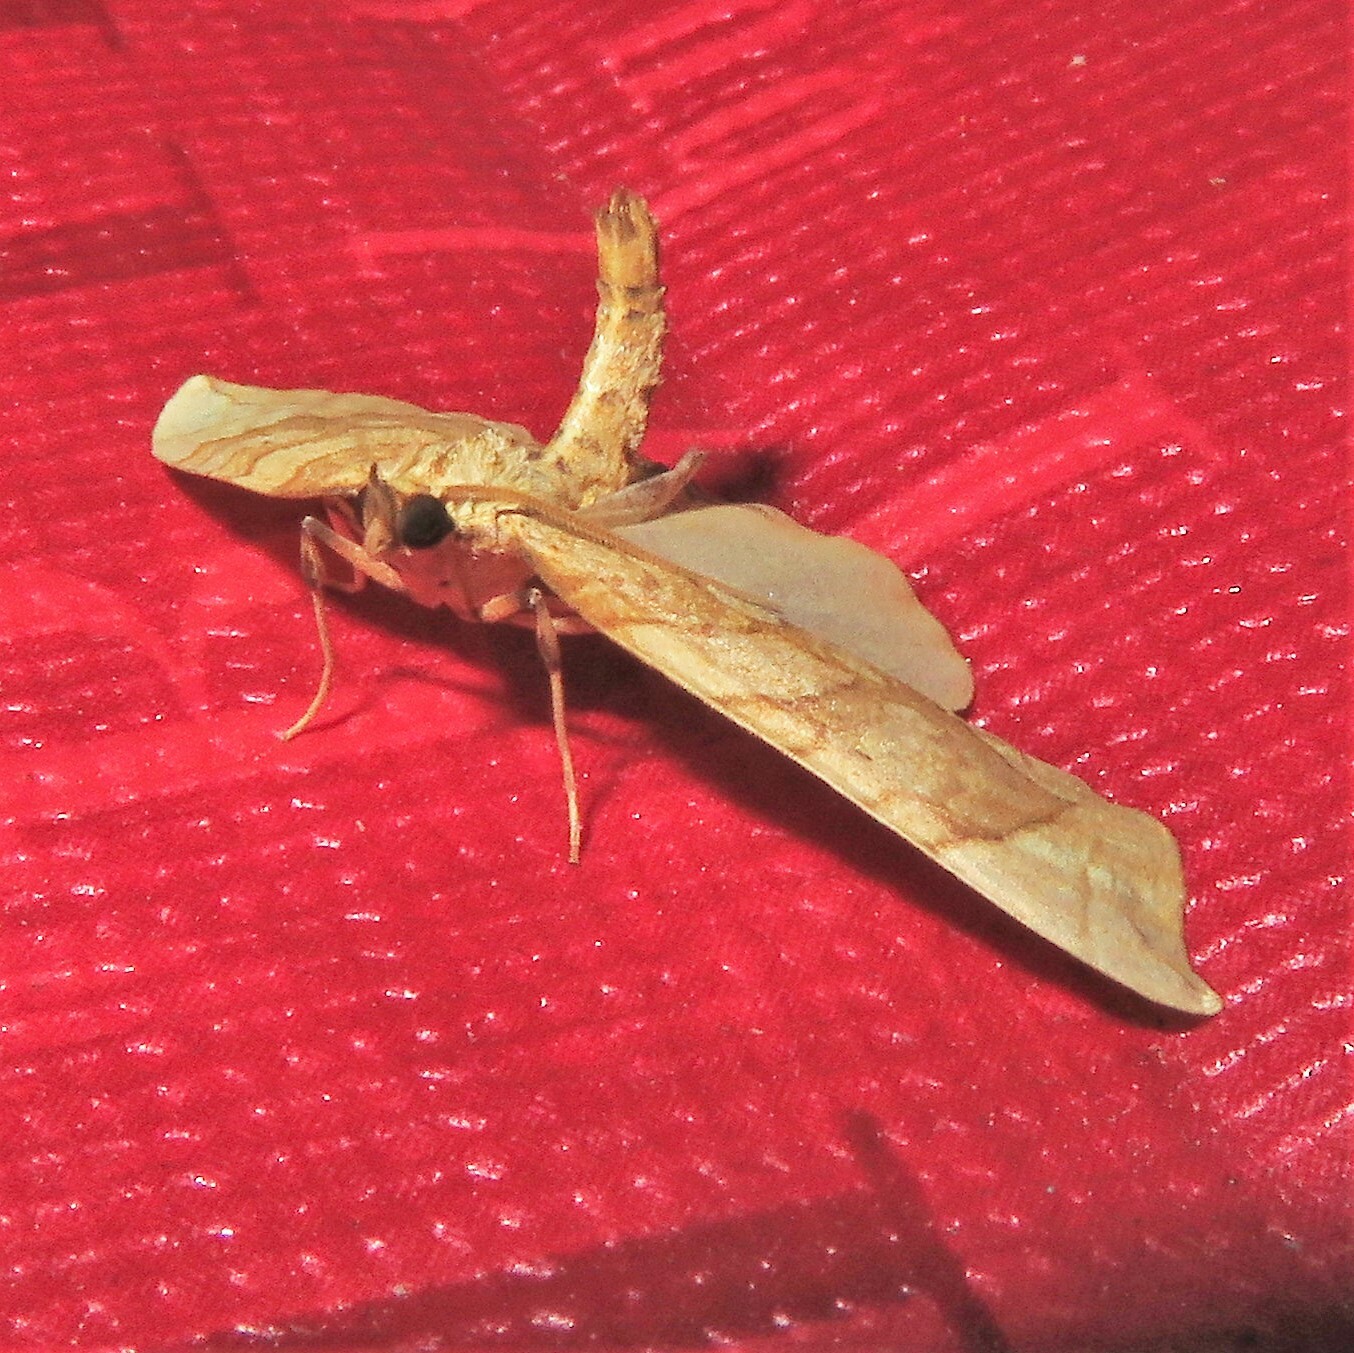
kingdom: Animalia
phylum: Arthropoda
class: Insecta
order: Lepidoptera
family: Geometridae
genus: Eulithis
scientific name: Eulithis
